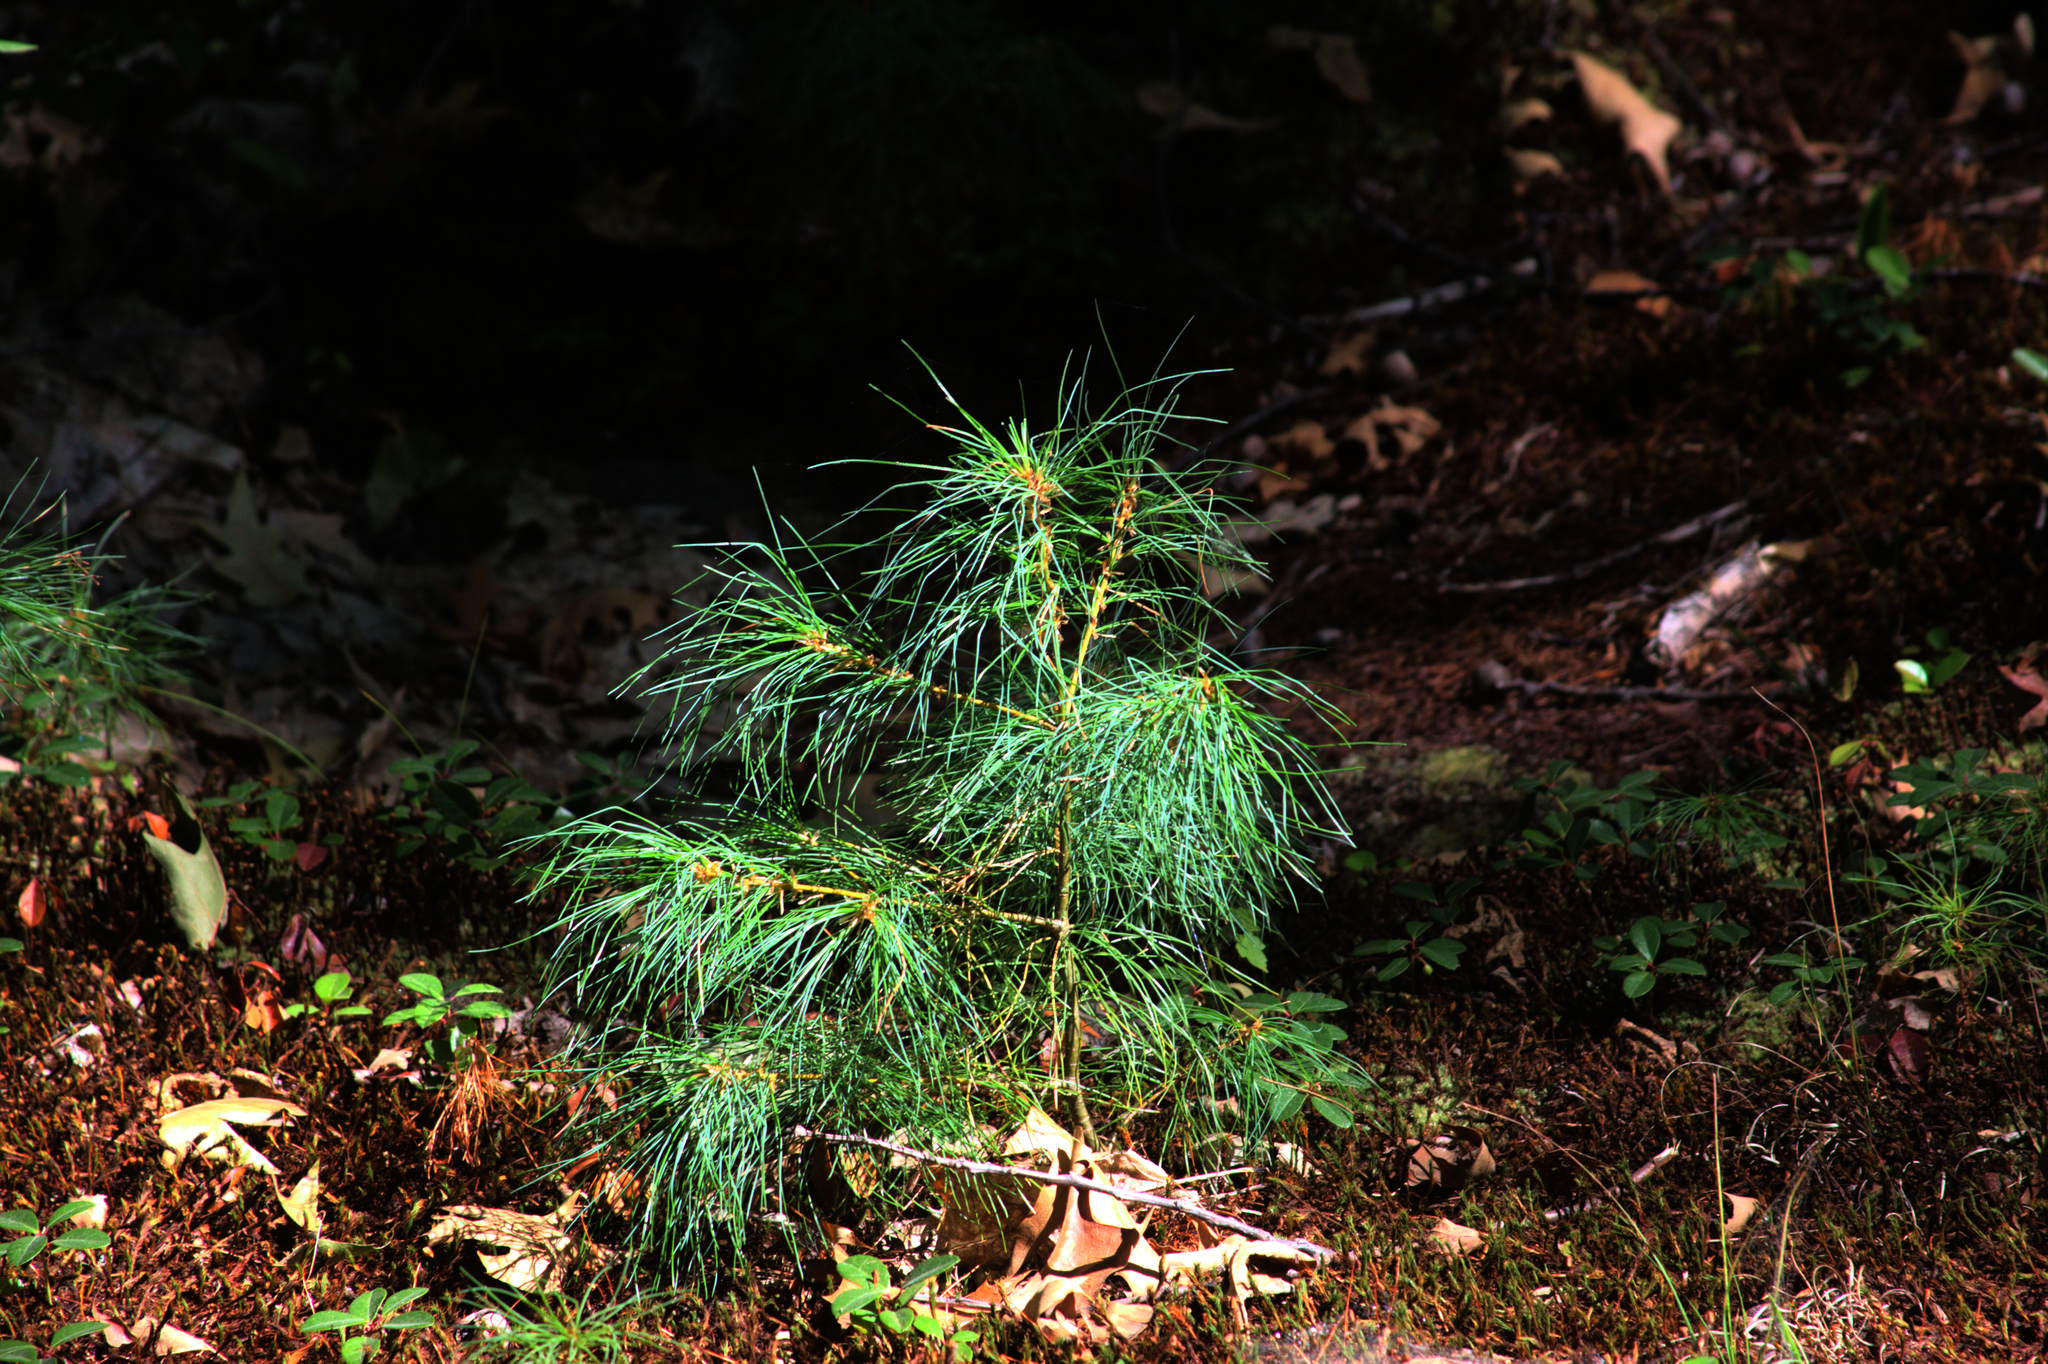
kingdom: Plantae
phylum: Tracheophyta
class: Pinopsida
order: Pinales
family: Pinaceae
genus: Pinus
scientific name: Pinus strobus
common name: Weymouth pine
